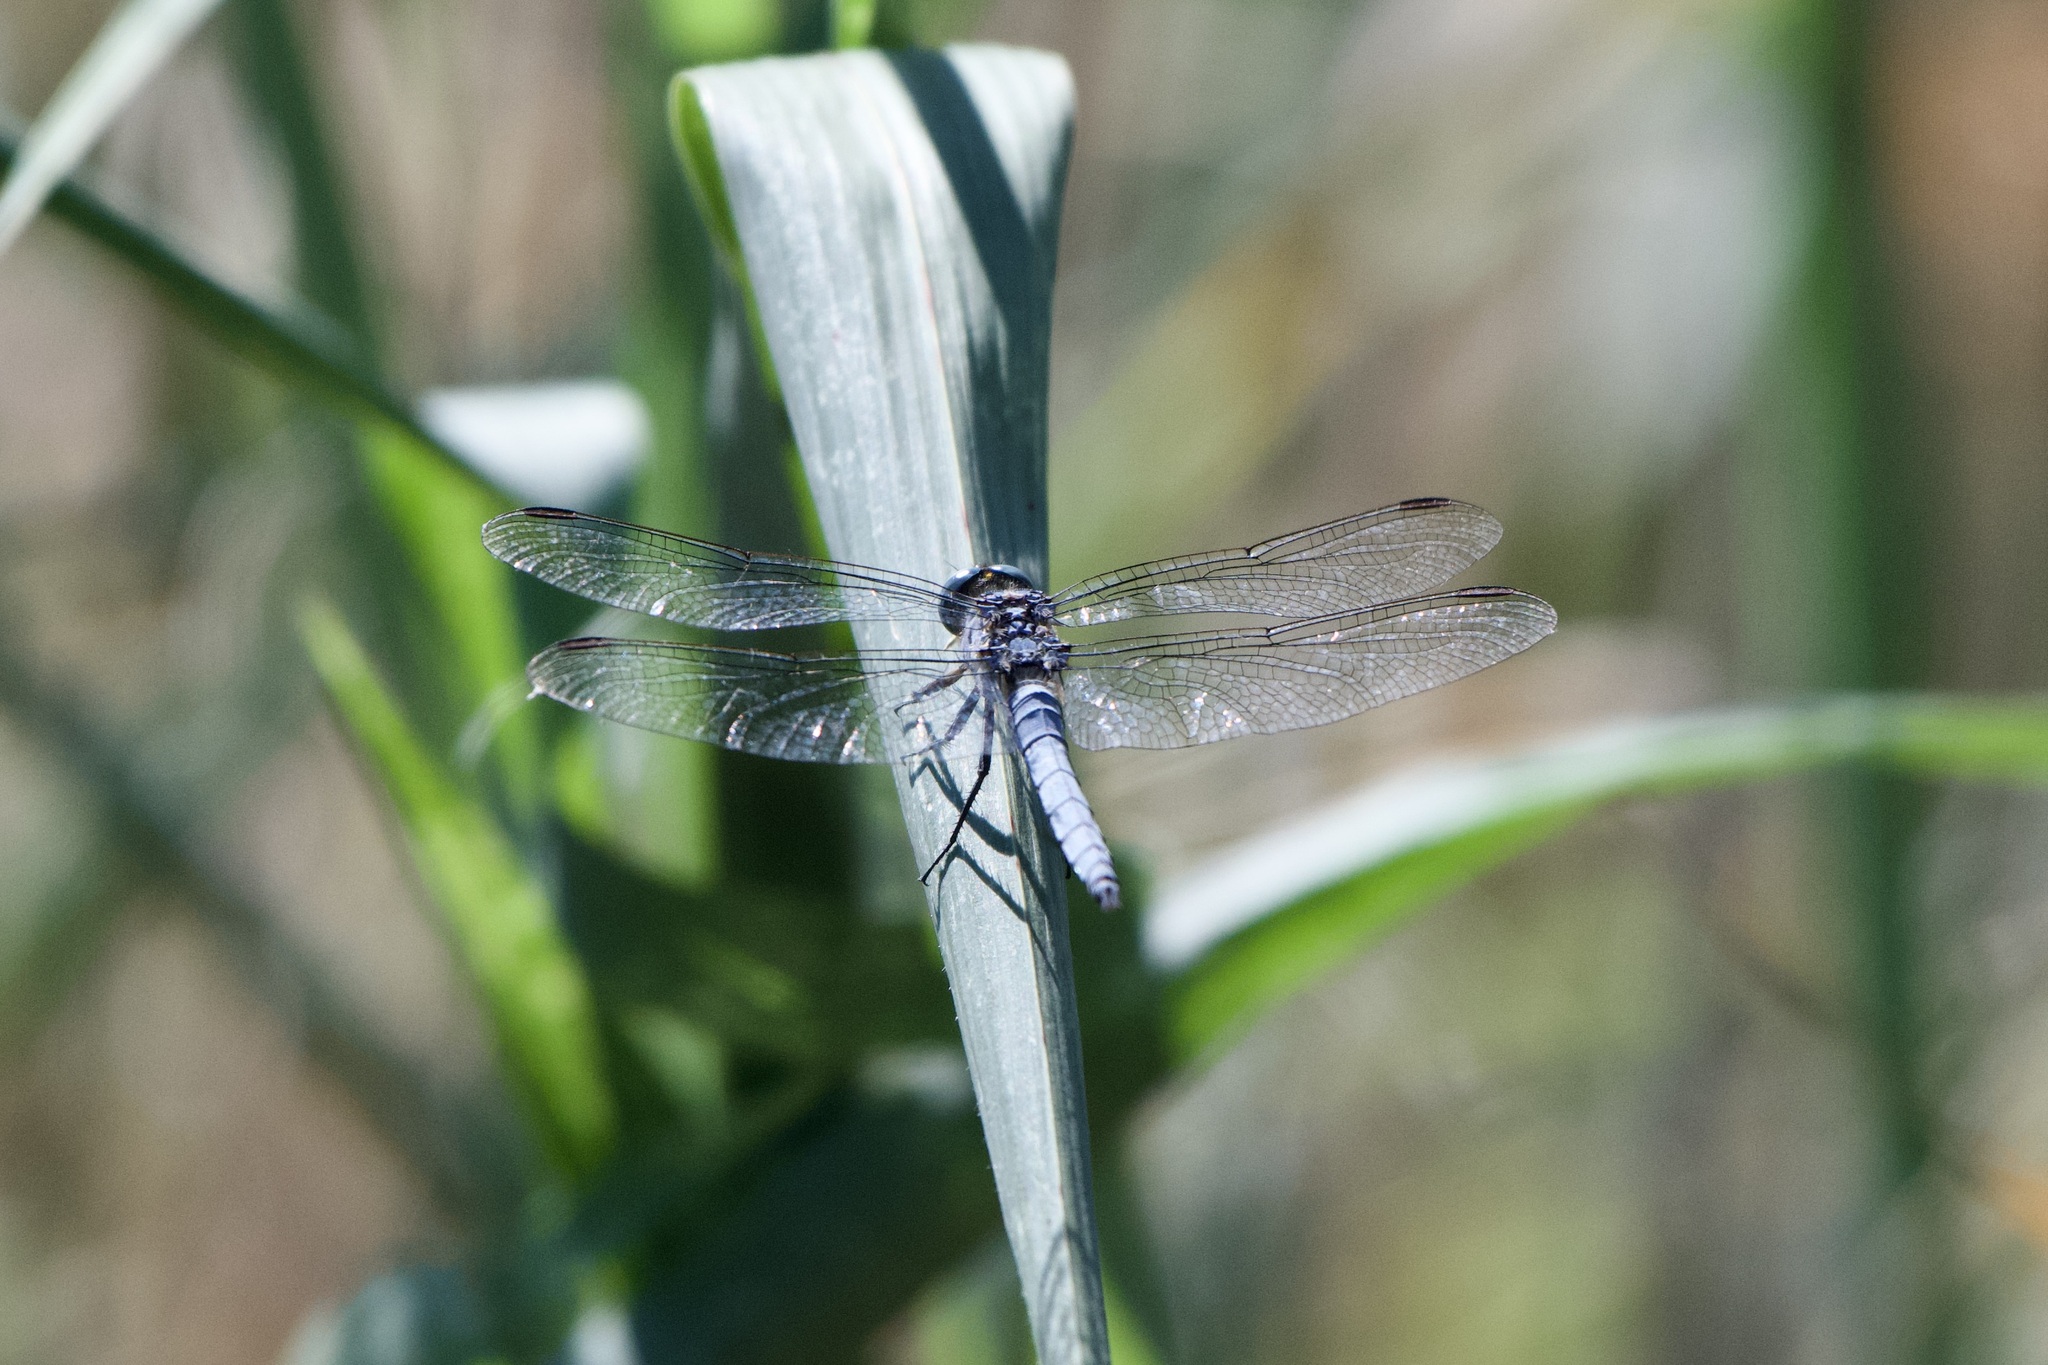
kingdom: Animalia
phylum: Arthropoda
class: Insecta
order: Odonata
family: Libellulidae
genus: Orthetrum
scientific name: Orthetrum coerulescens
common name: Keeled skimmer
